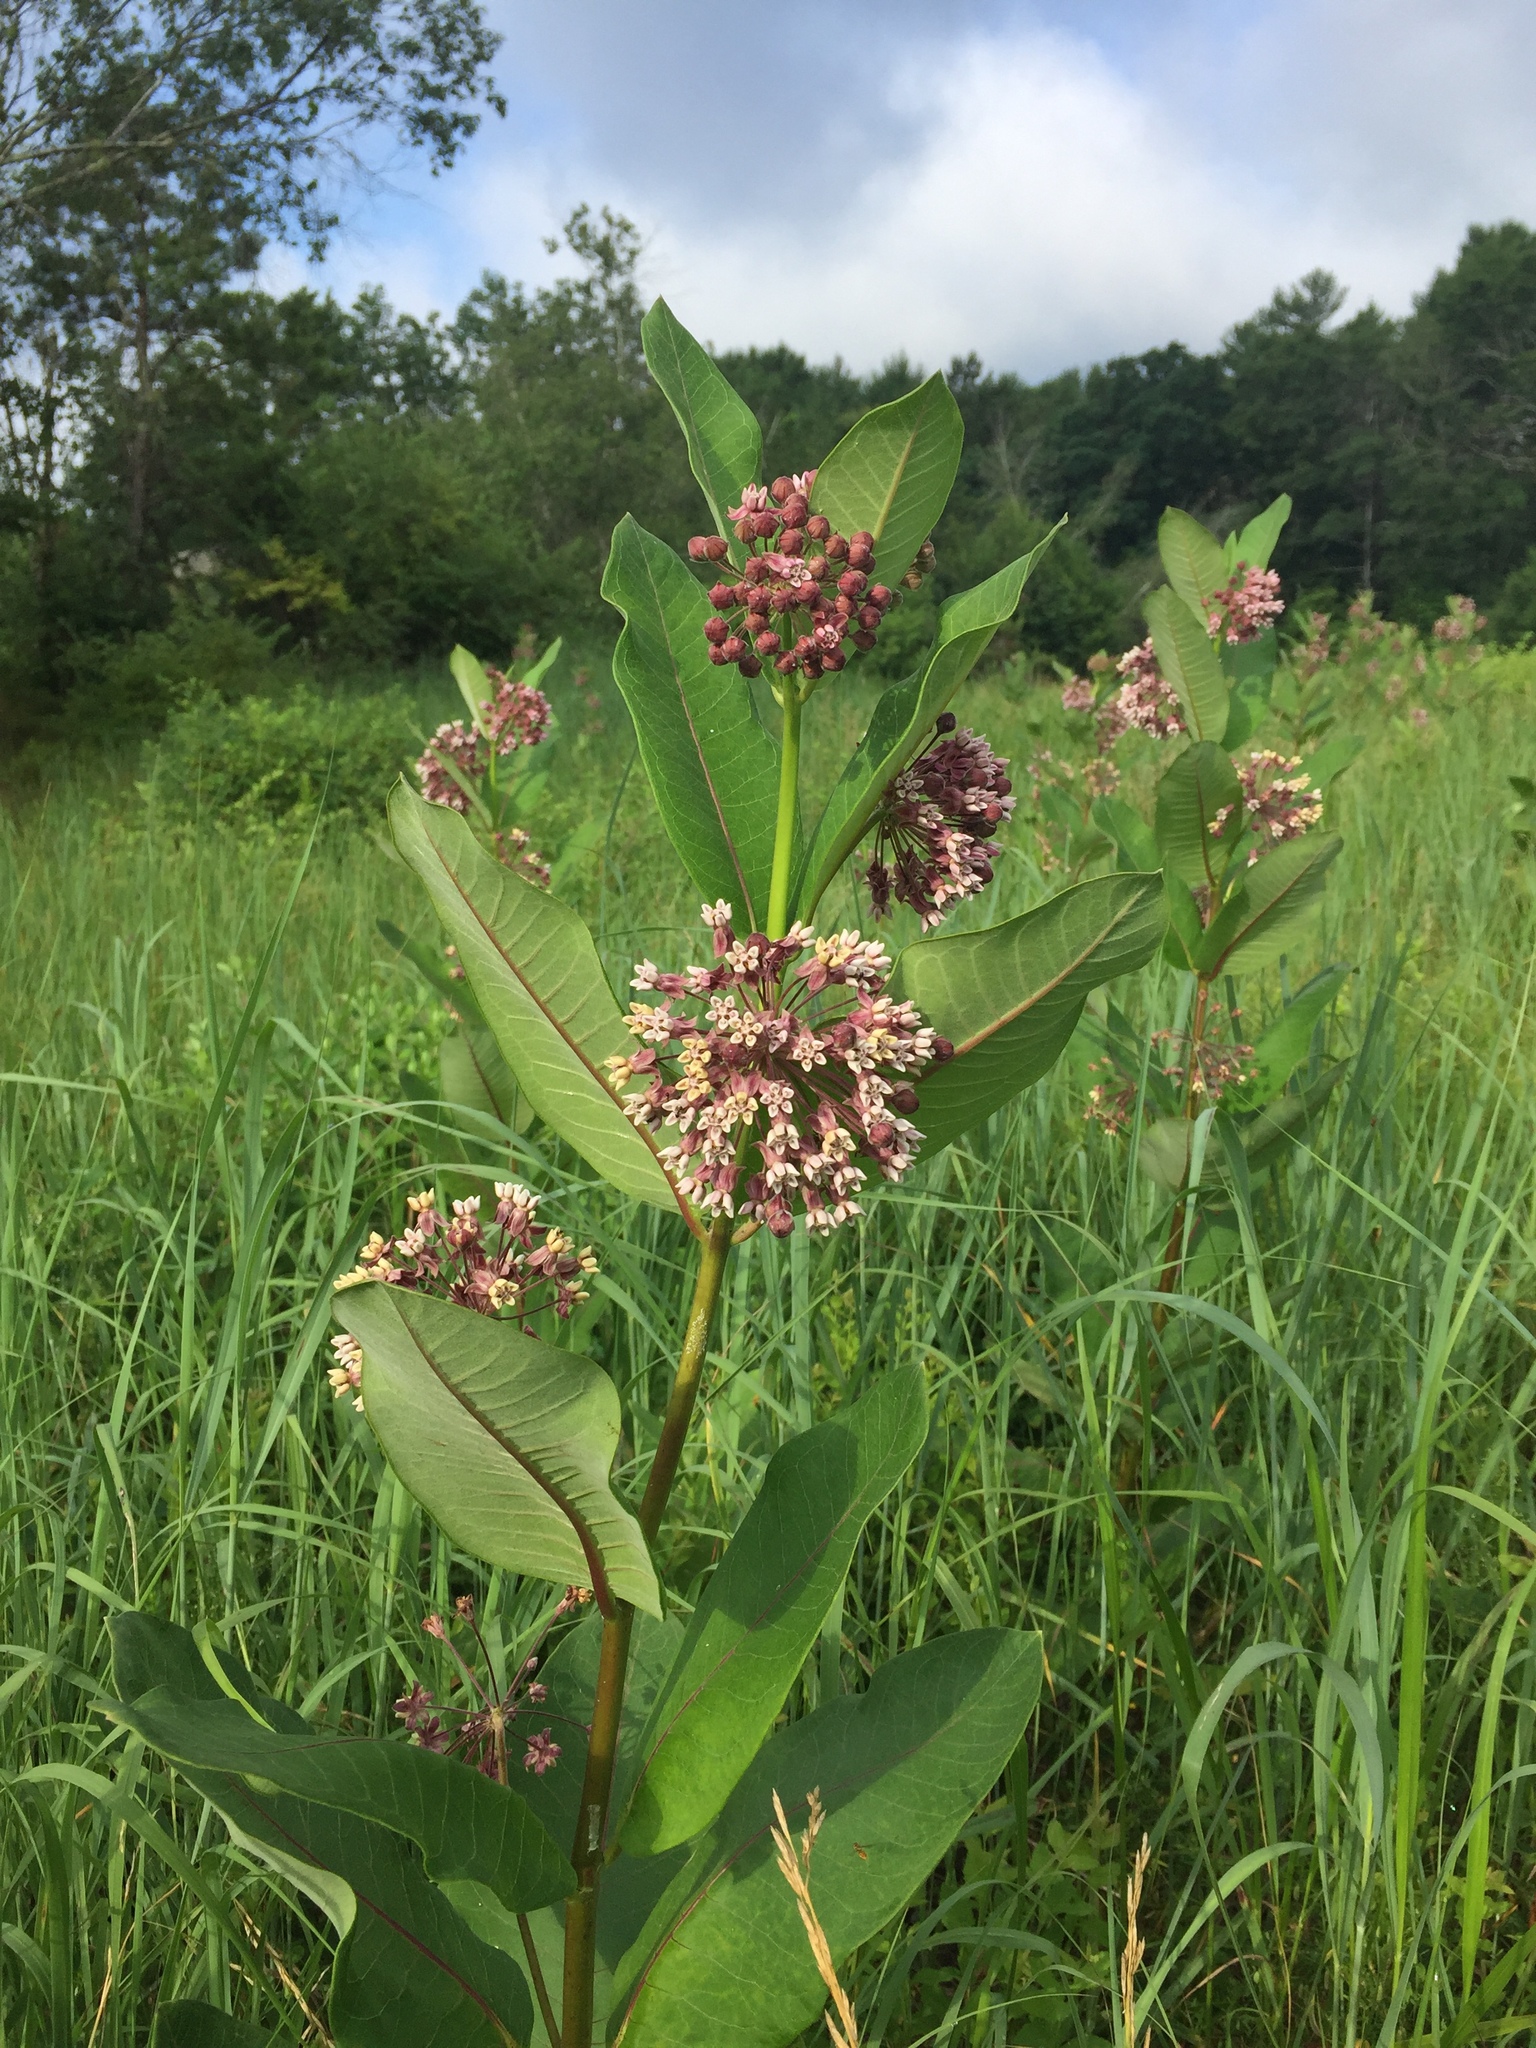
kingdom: Plantae
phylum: Tracheophyta
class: Magnoliopsida
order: Gentianales
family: Apocynaceae
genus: Asclepias
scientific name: Asclepias syriaca
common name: Common milkweed
